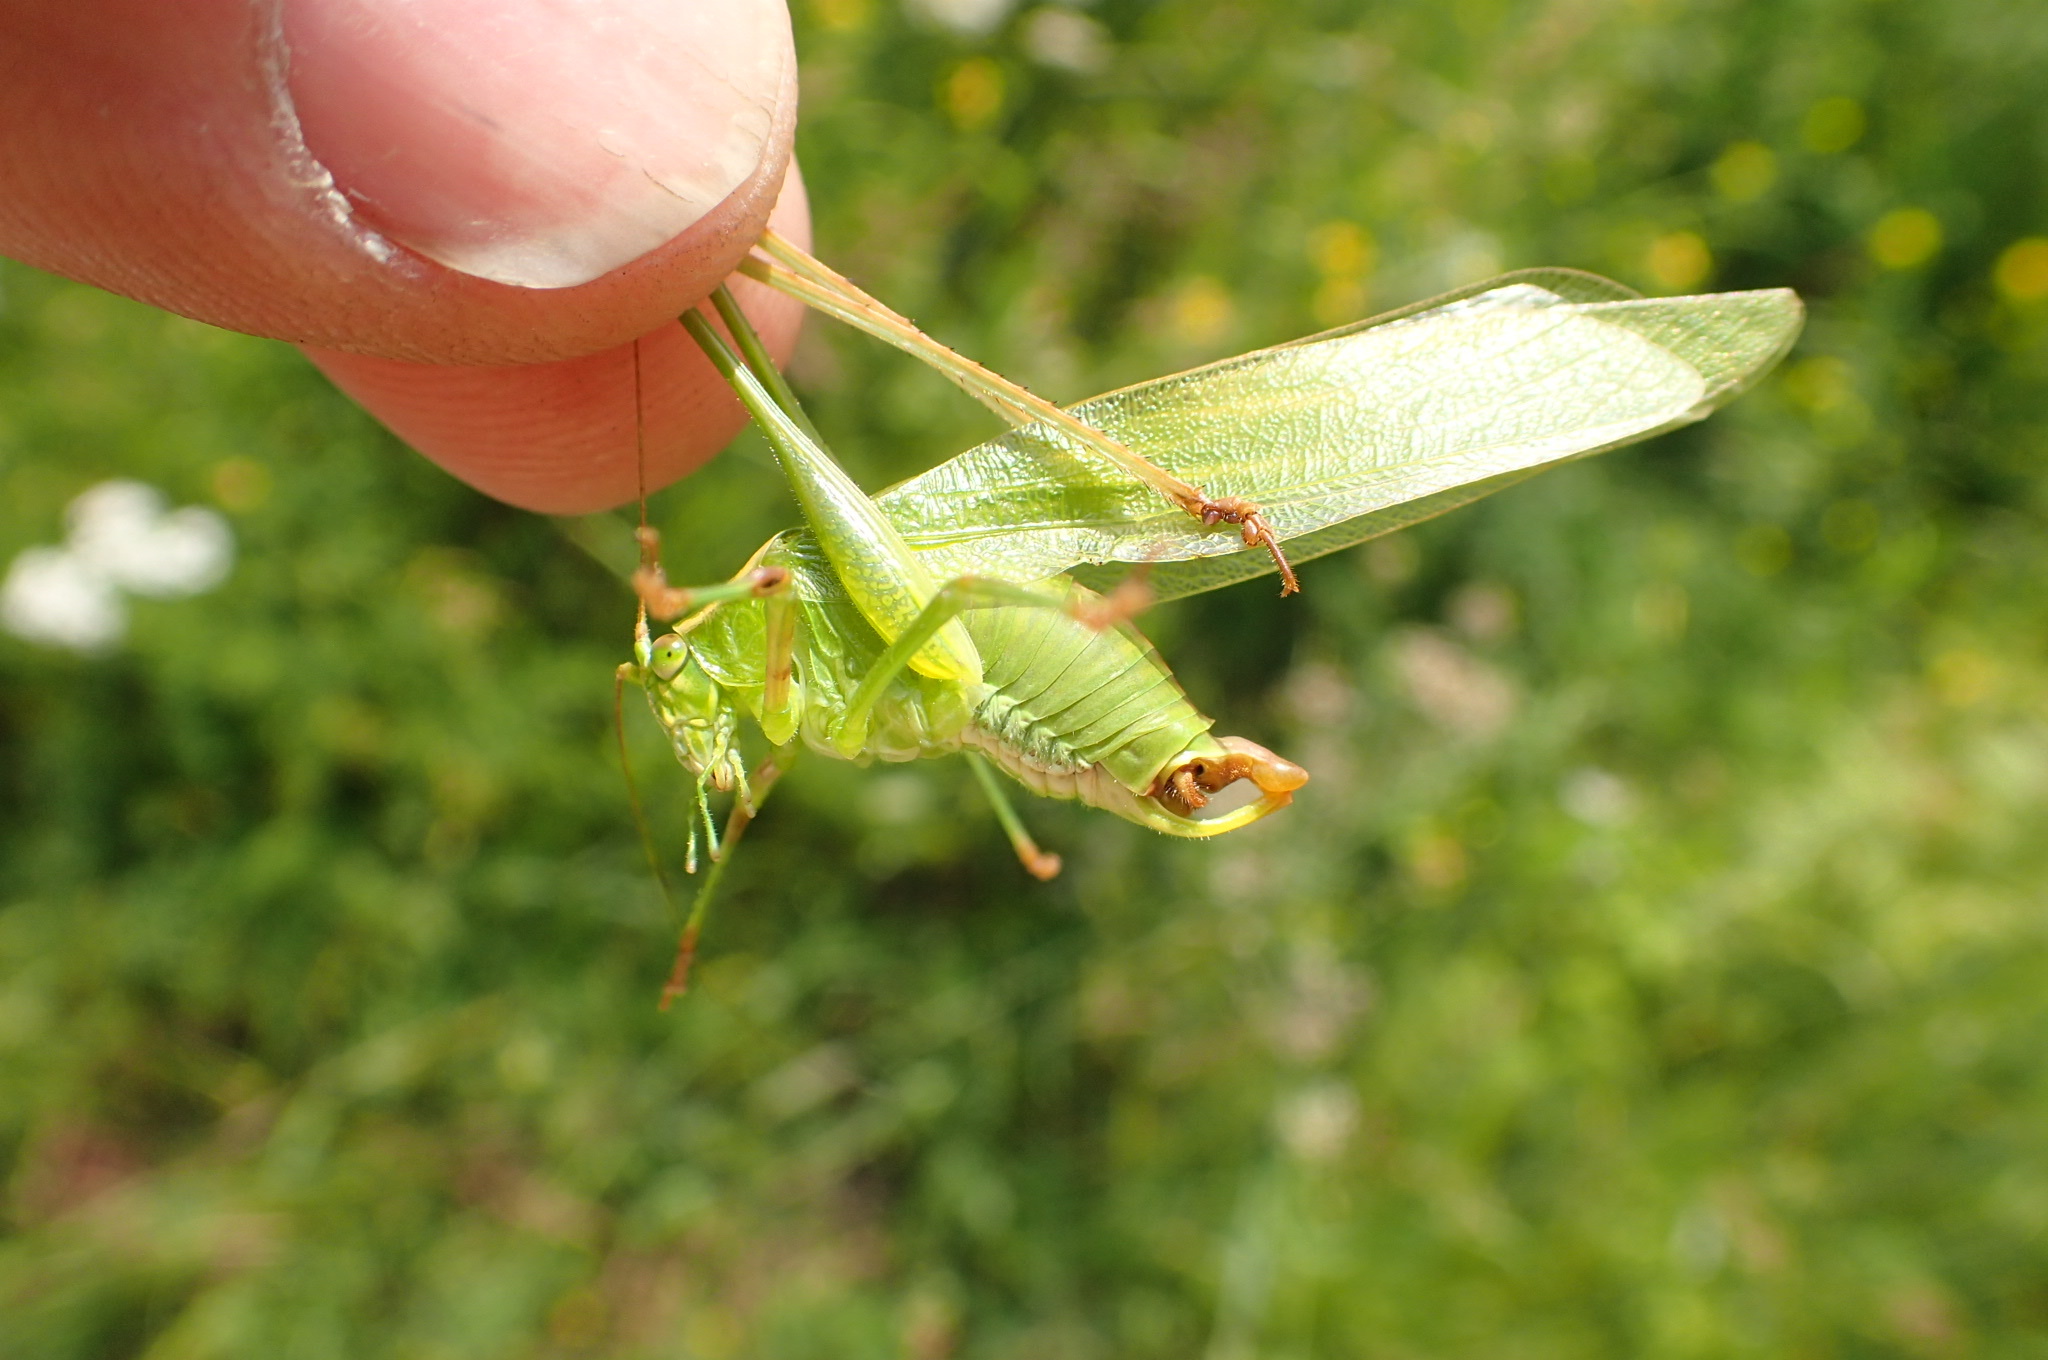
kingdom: Animalia
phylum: Arthropoda
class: Insecta
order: Orthoptera
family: Tettigoniidae
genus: Scudderia
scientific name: Scudderia furcata
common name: Fork-tailed bush katydid
